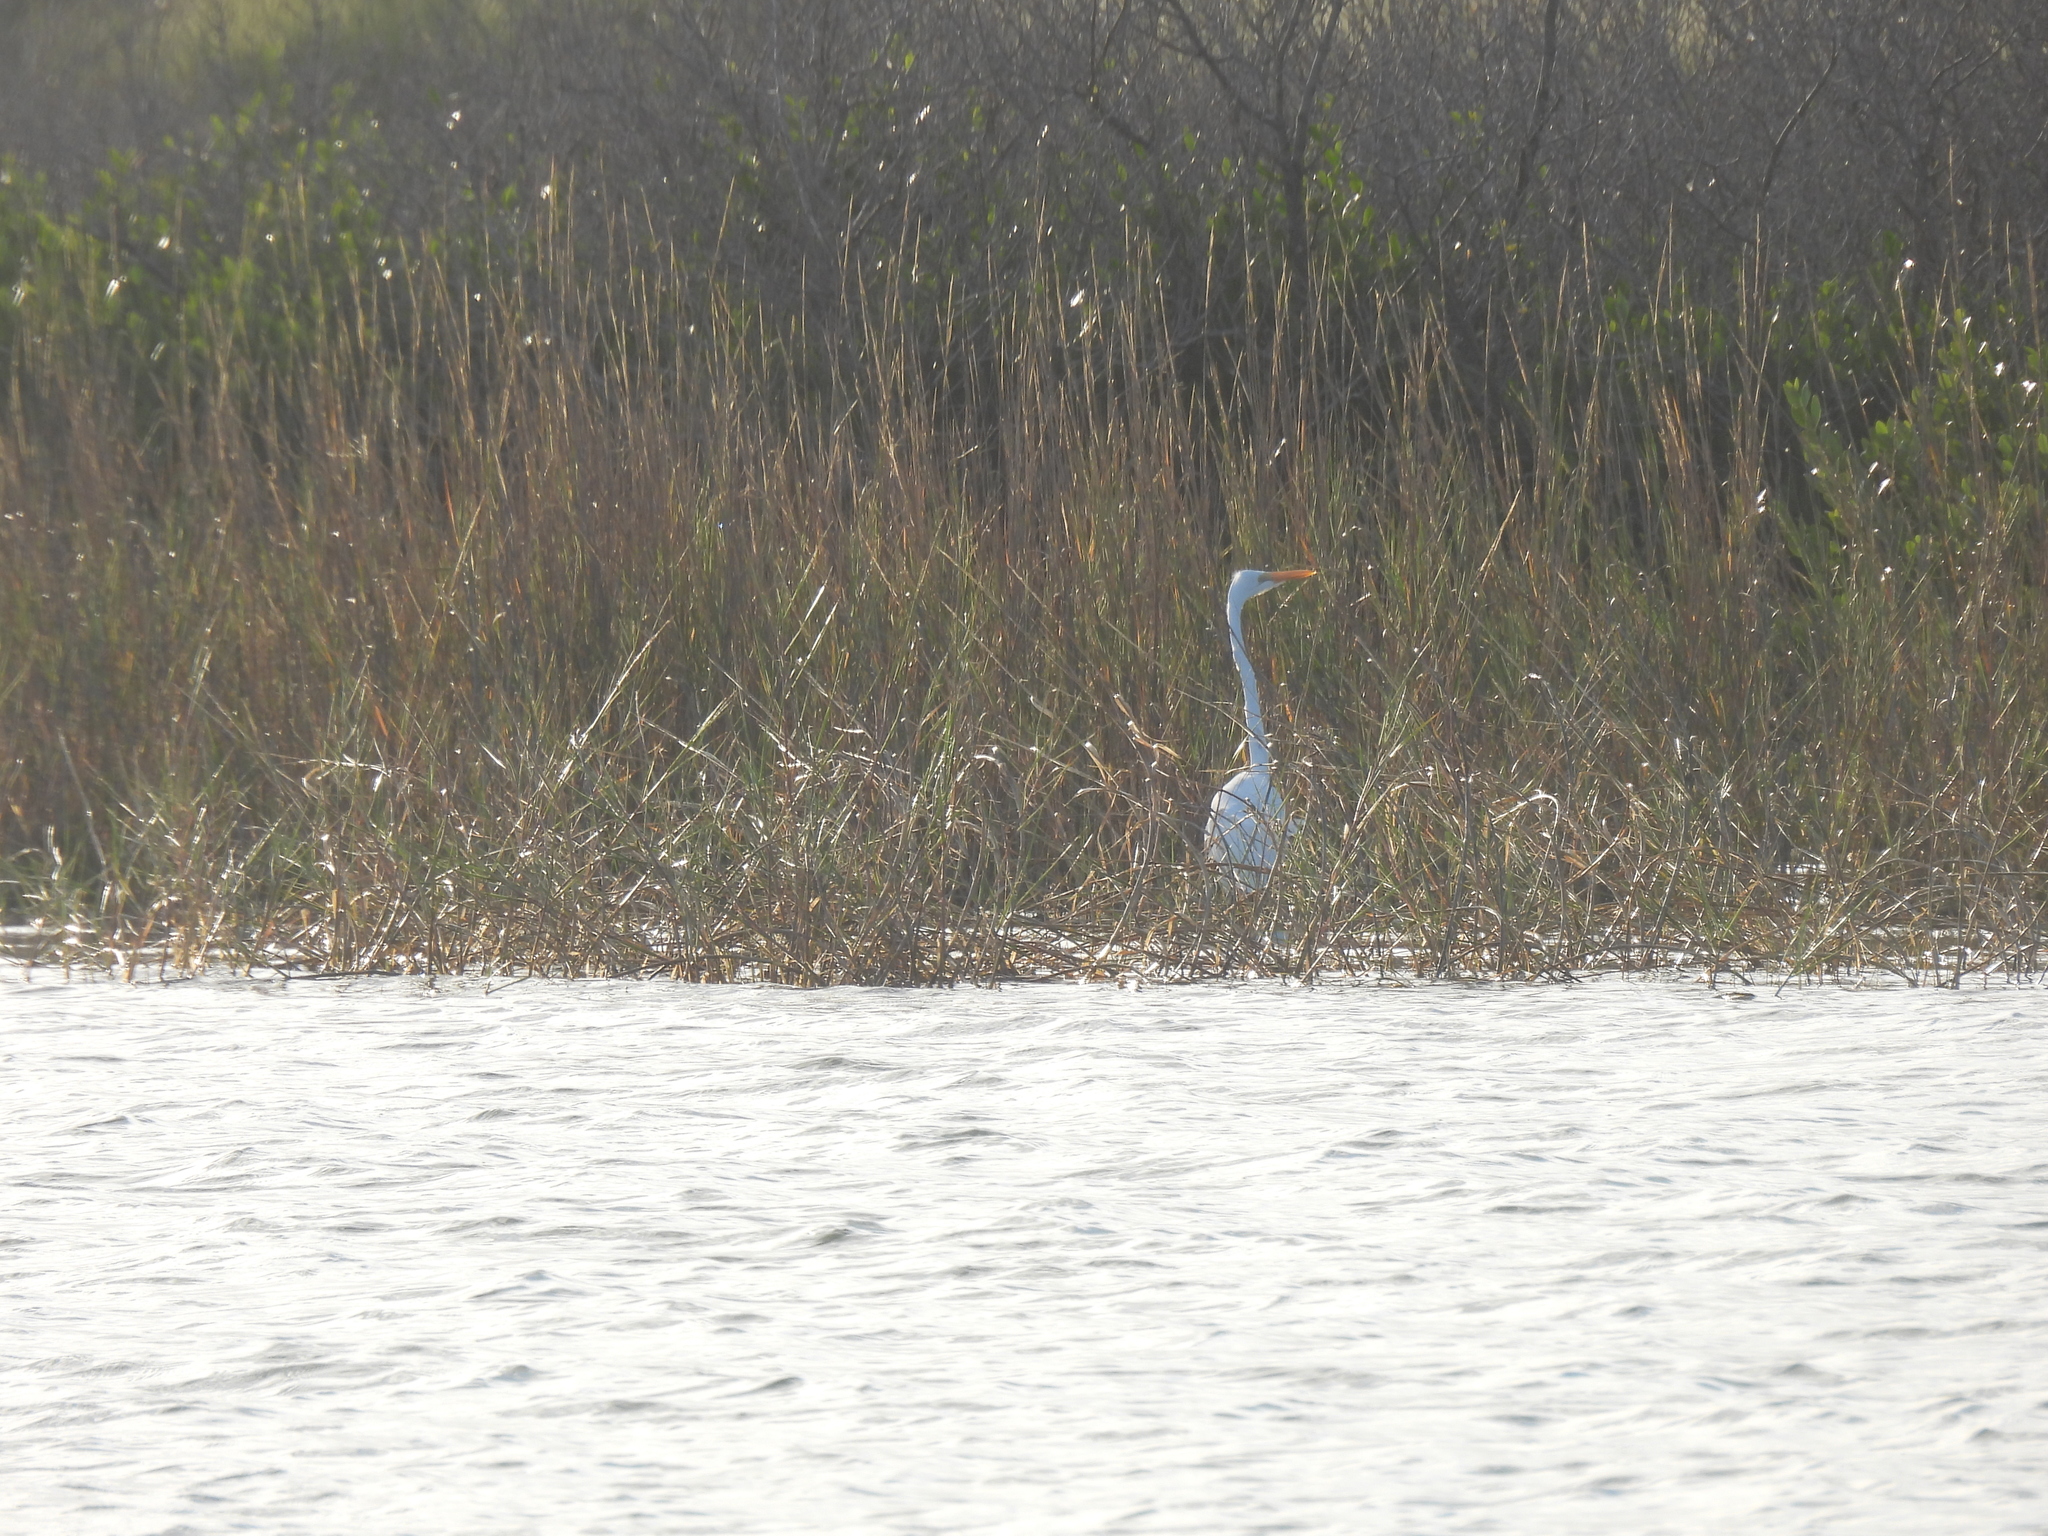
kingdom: Animalia
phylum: Chordata
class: Aves
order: Pelecaniformes
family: Ardeidae
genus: Ardea
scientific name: Ardea alba
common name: Great egret
